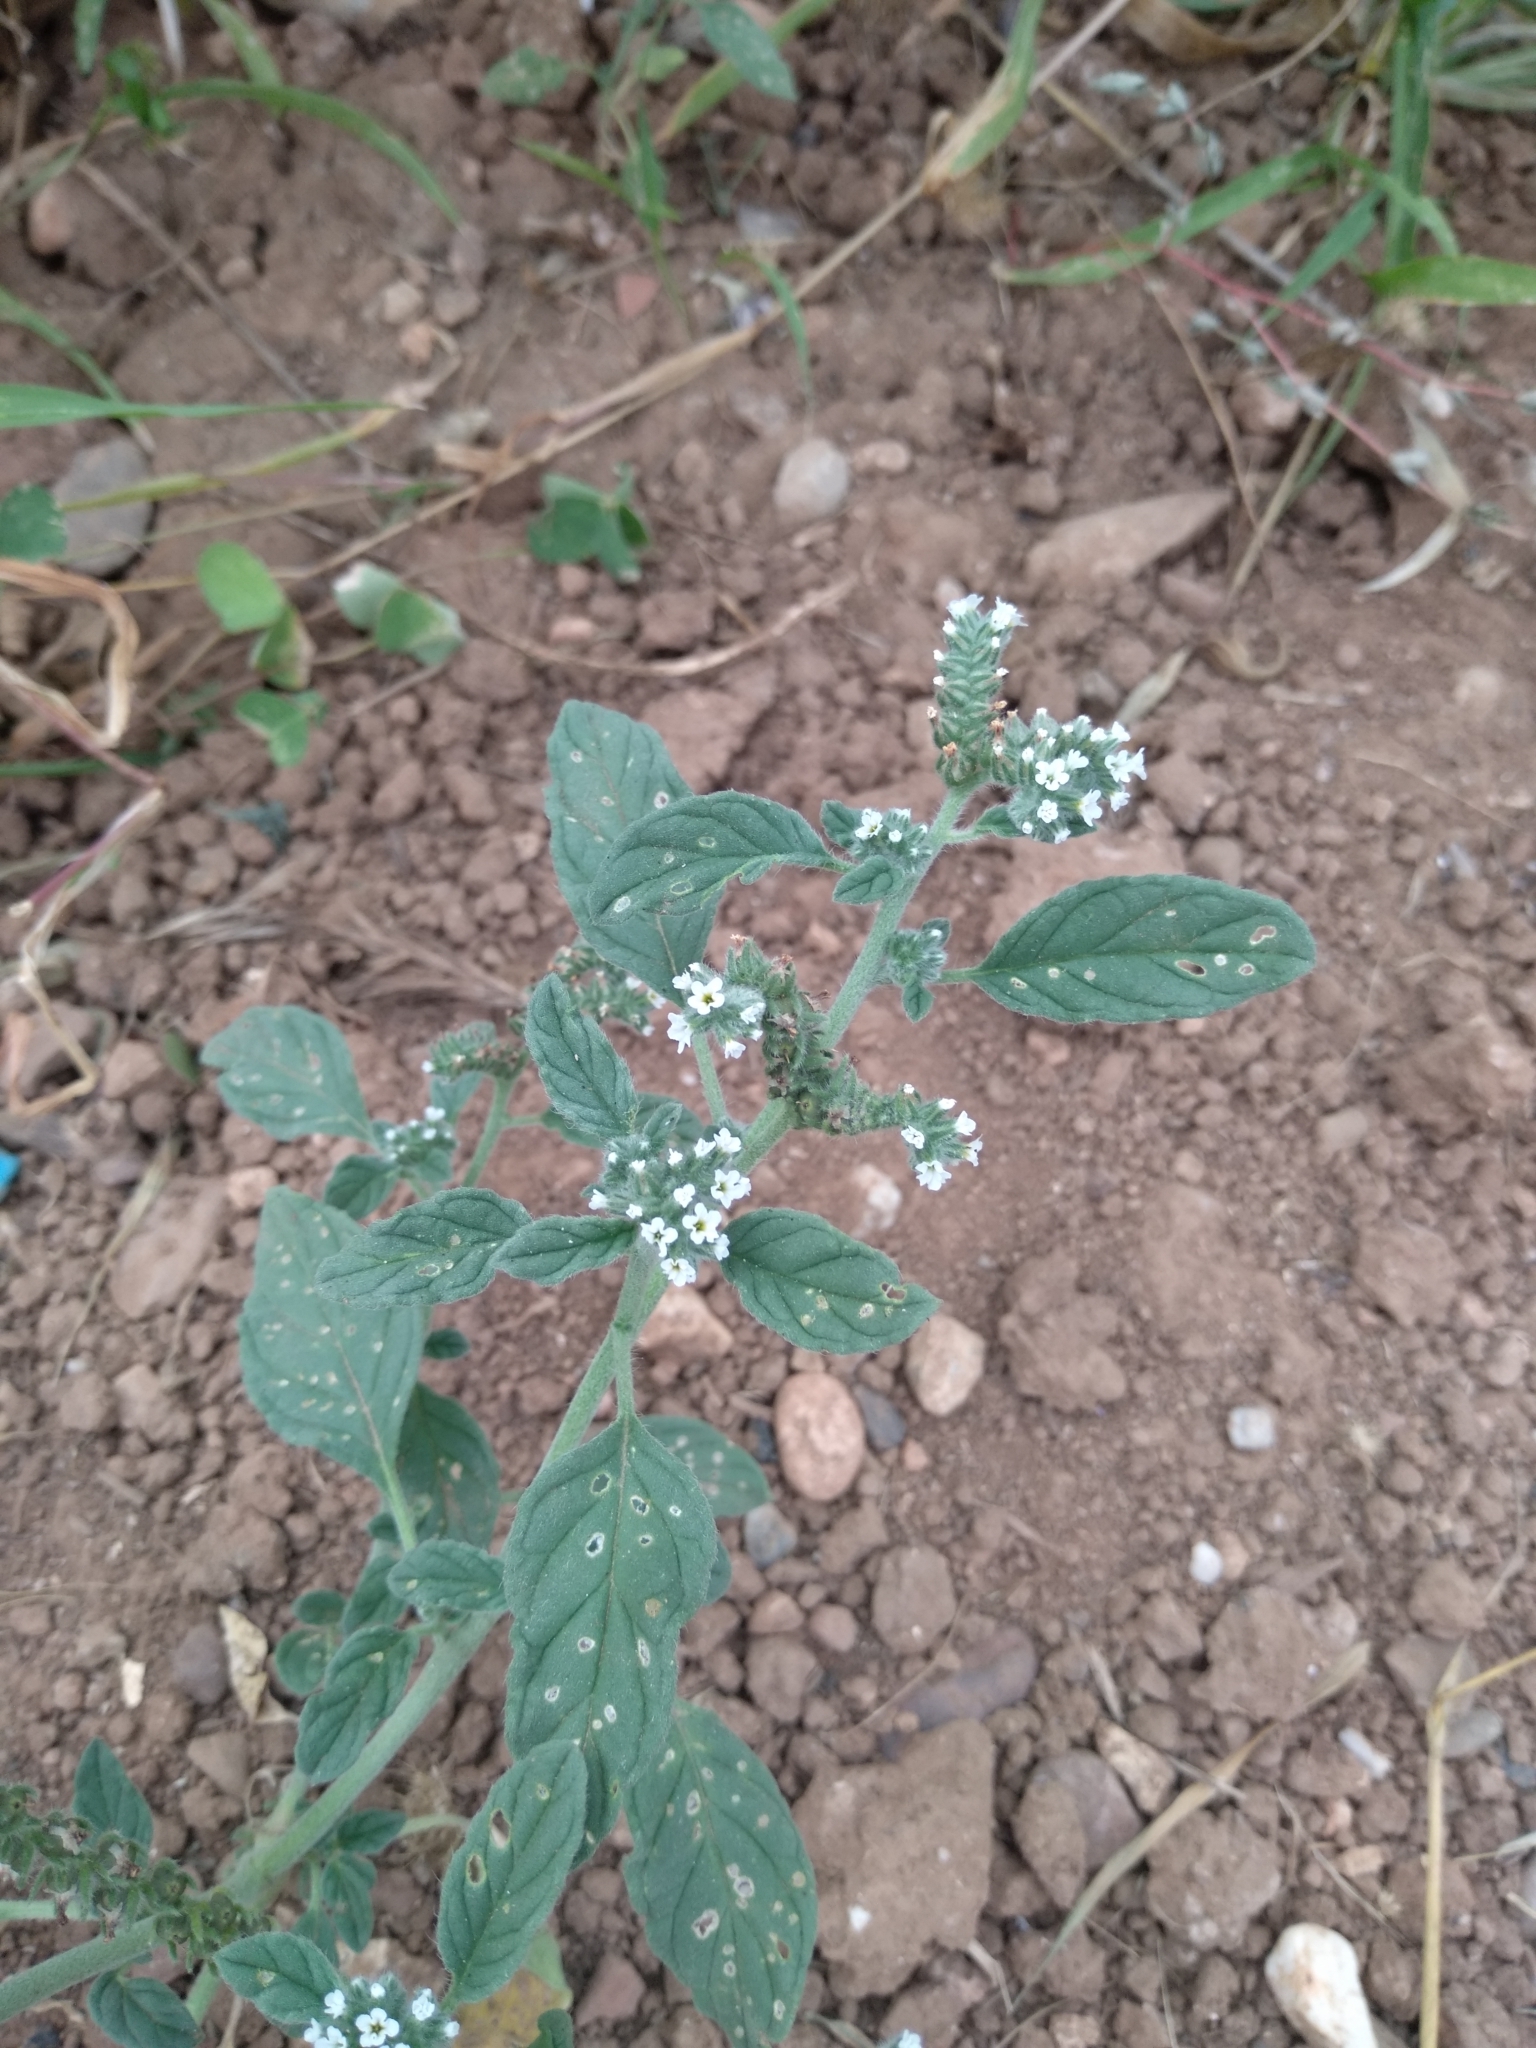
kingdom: Plantae
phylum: Tracheophyta
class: Magnoliopsida
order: Boraginales
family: Heliotropiaceae
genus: Heliotropium
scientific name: Heliotropium europaeum
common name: European heliotrope
